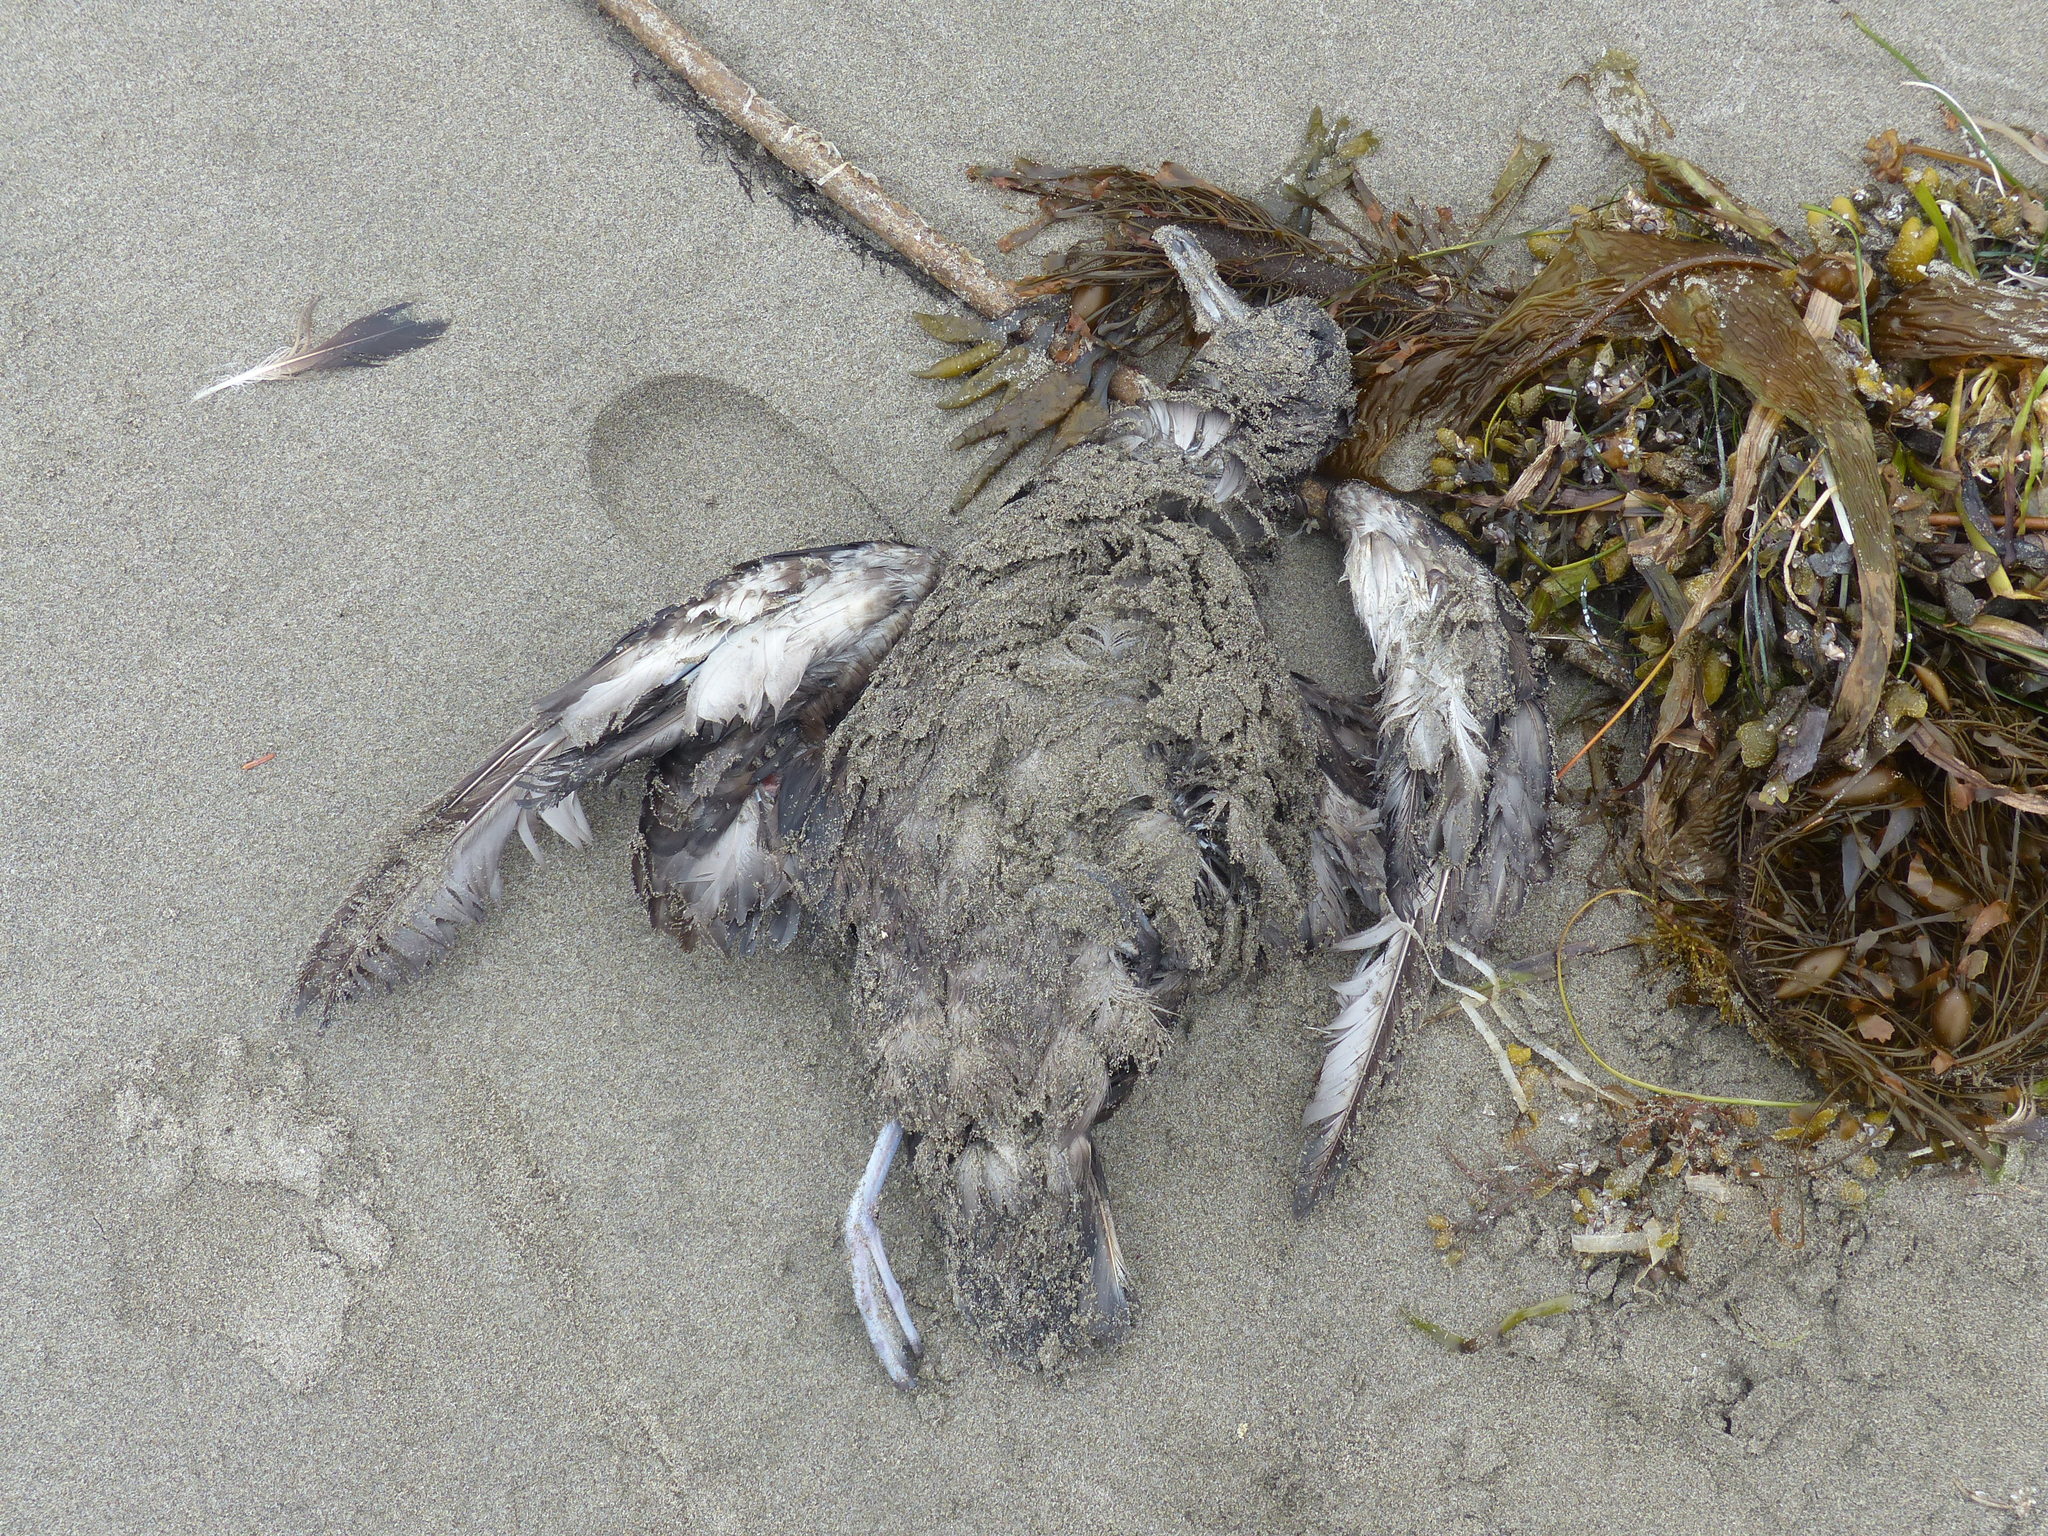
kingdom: Animalia
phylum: Chordata
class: Aves
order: Procellariiformes
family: Procellariidae
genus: Puffinus
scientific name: Puffinus griseus
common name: Sooty shearwater
